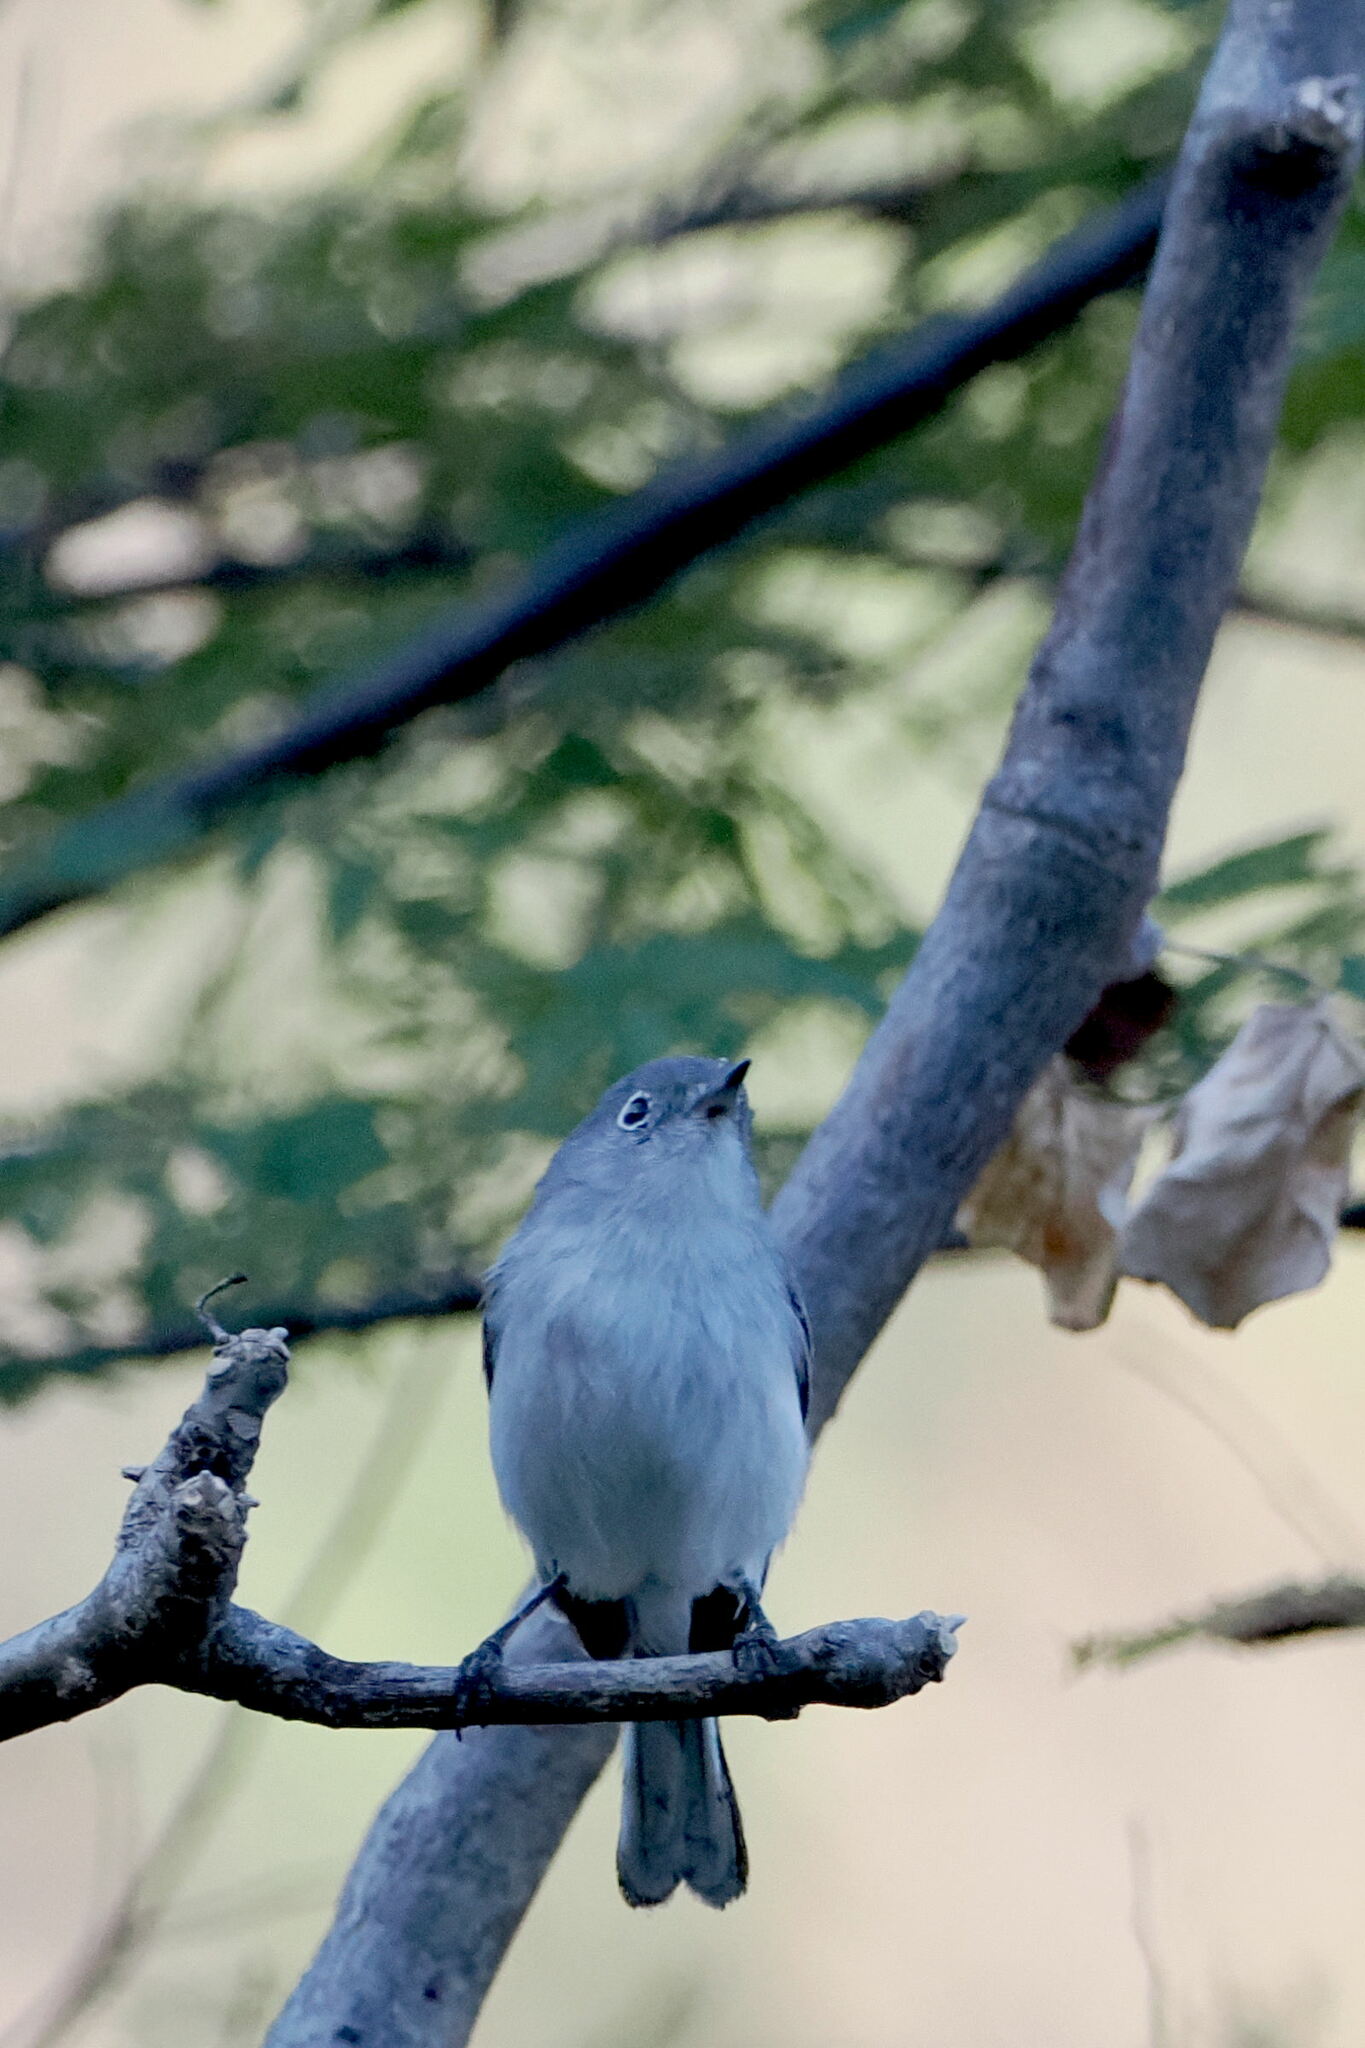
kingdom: Animalia
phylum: Chordata
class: Aves
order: Passeriformes
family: Polioptilidae
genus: Polioptila
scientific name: Polioptila caerulea
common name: Blue-gray gnatcatcher
